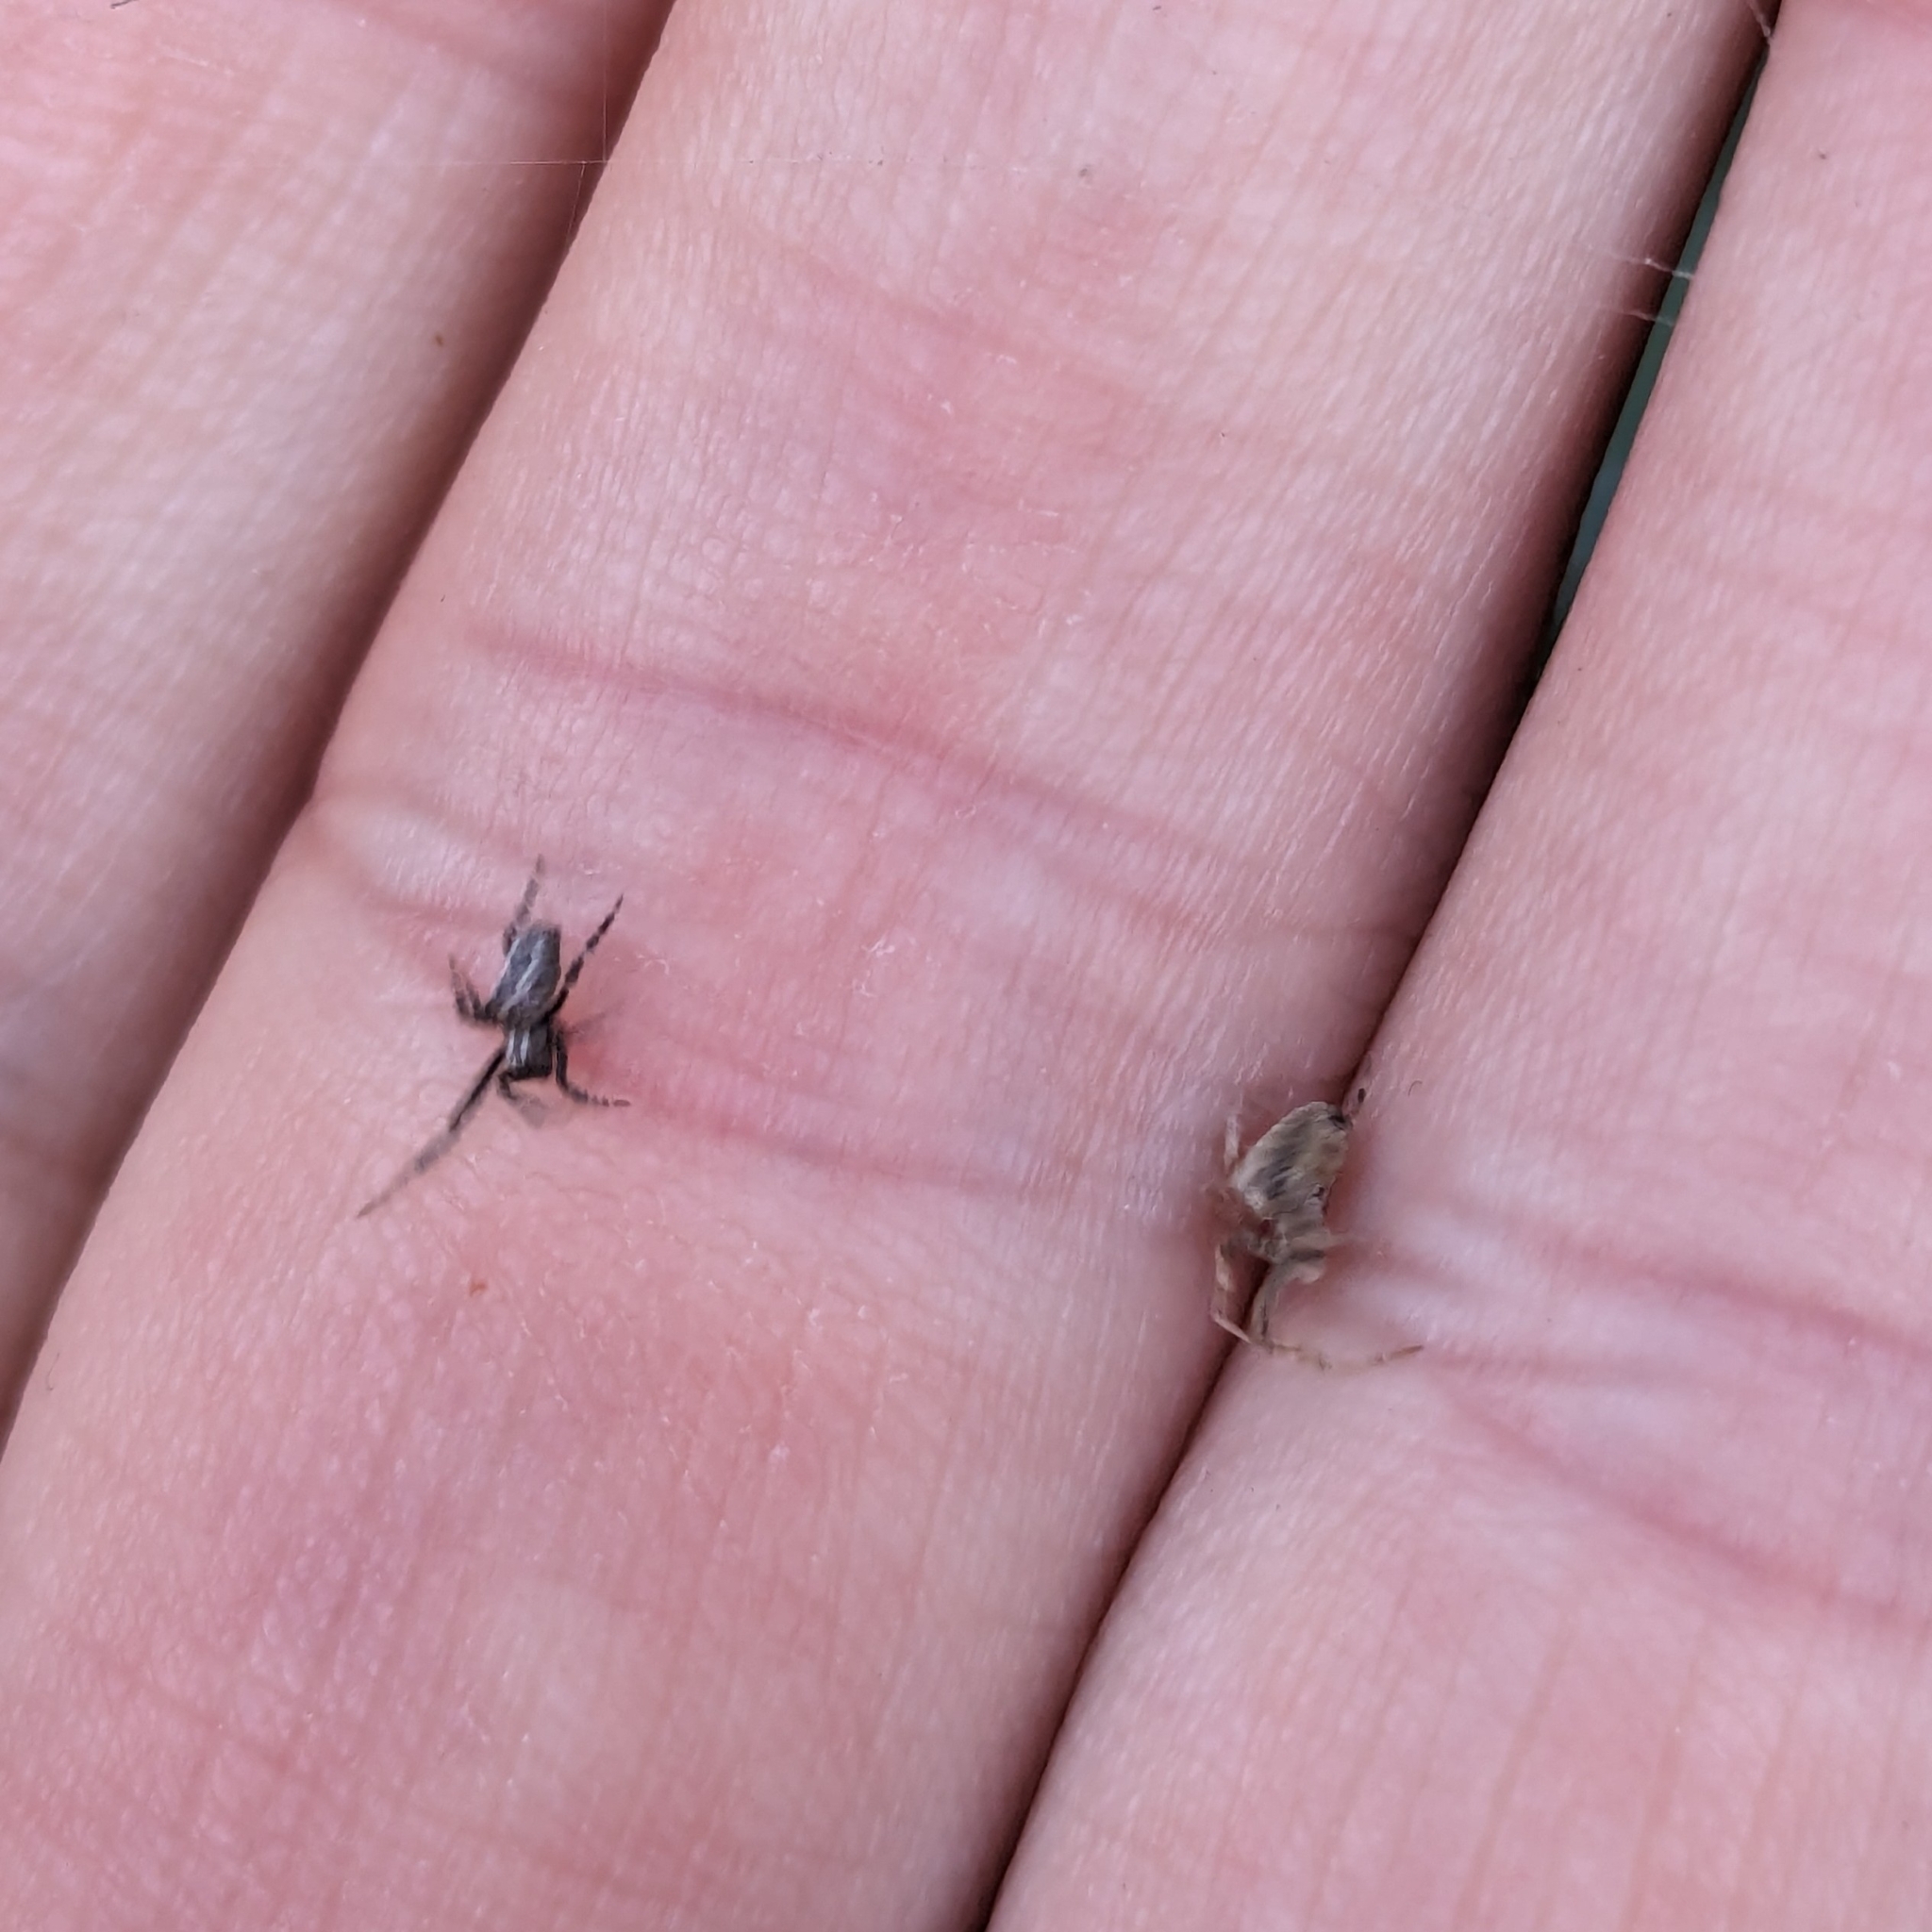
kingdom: Animalia
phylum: Arthropoda
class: Arachnida
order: Araneae
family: Uloboridae
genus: Philoponella
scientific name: Philoponella congregabilis
